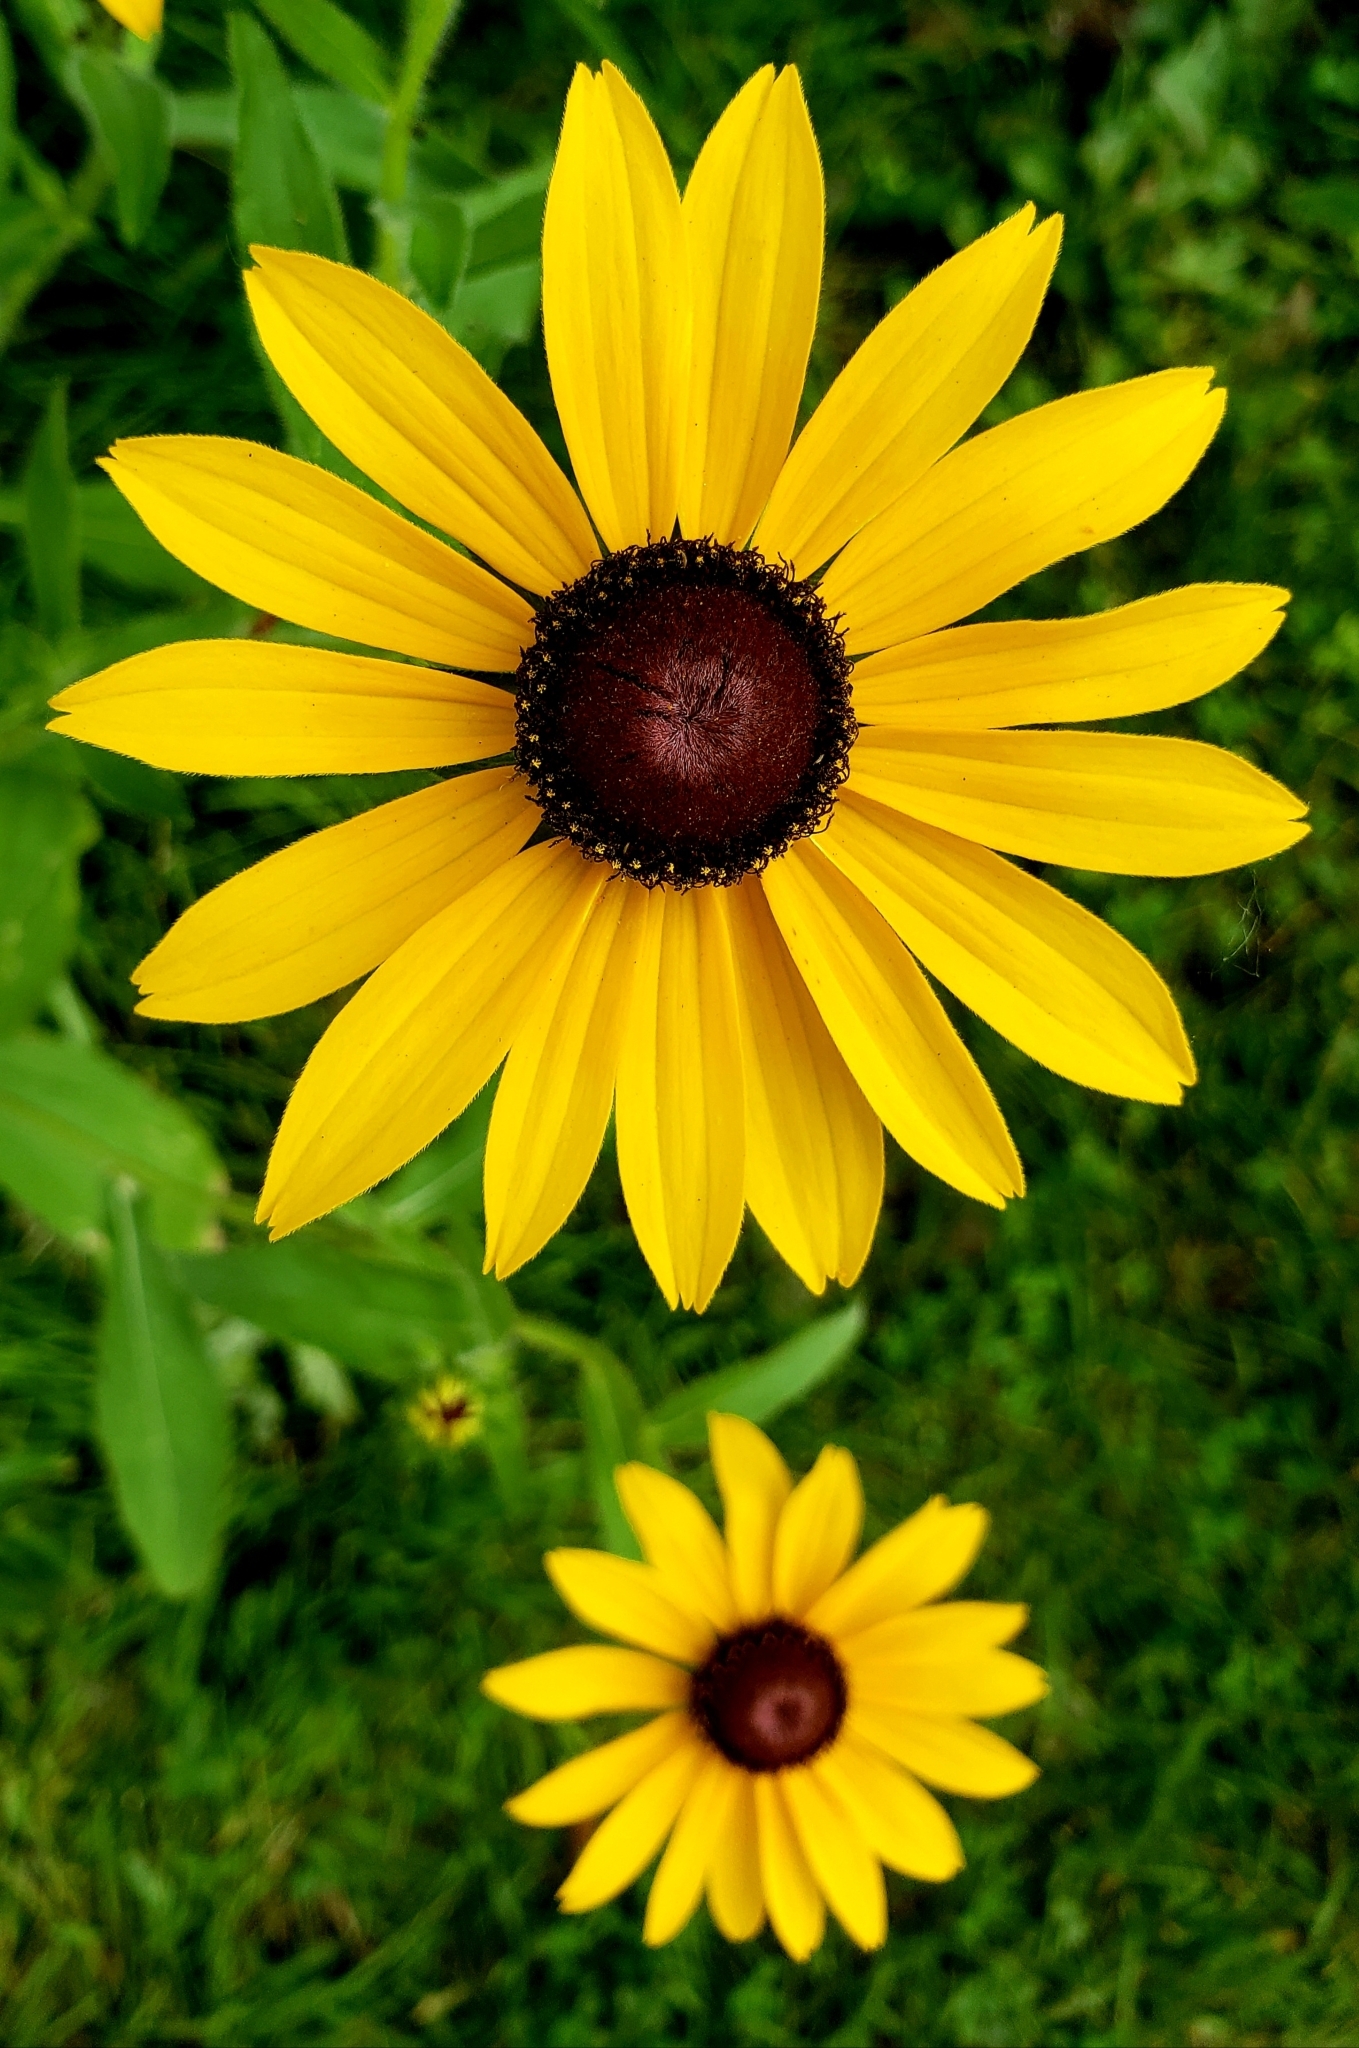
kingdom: Plantae
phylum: Tracheophyta
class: Magnoliopsida
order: Asterales
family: Asteraceae
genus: Rudbeckia
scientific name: Rudbeckia hirta
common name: Black-eyed-susan
